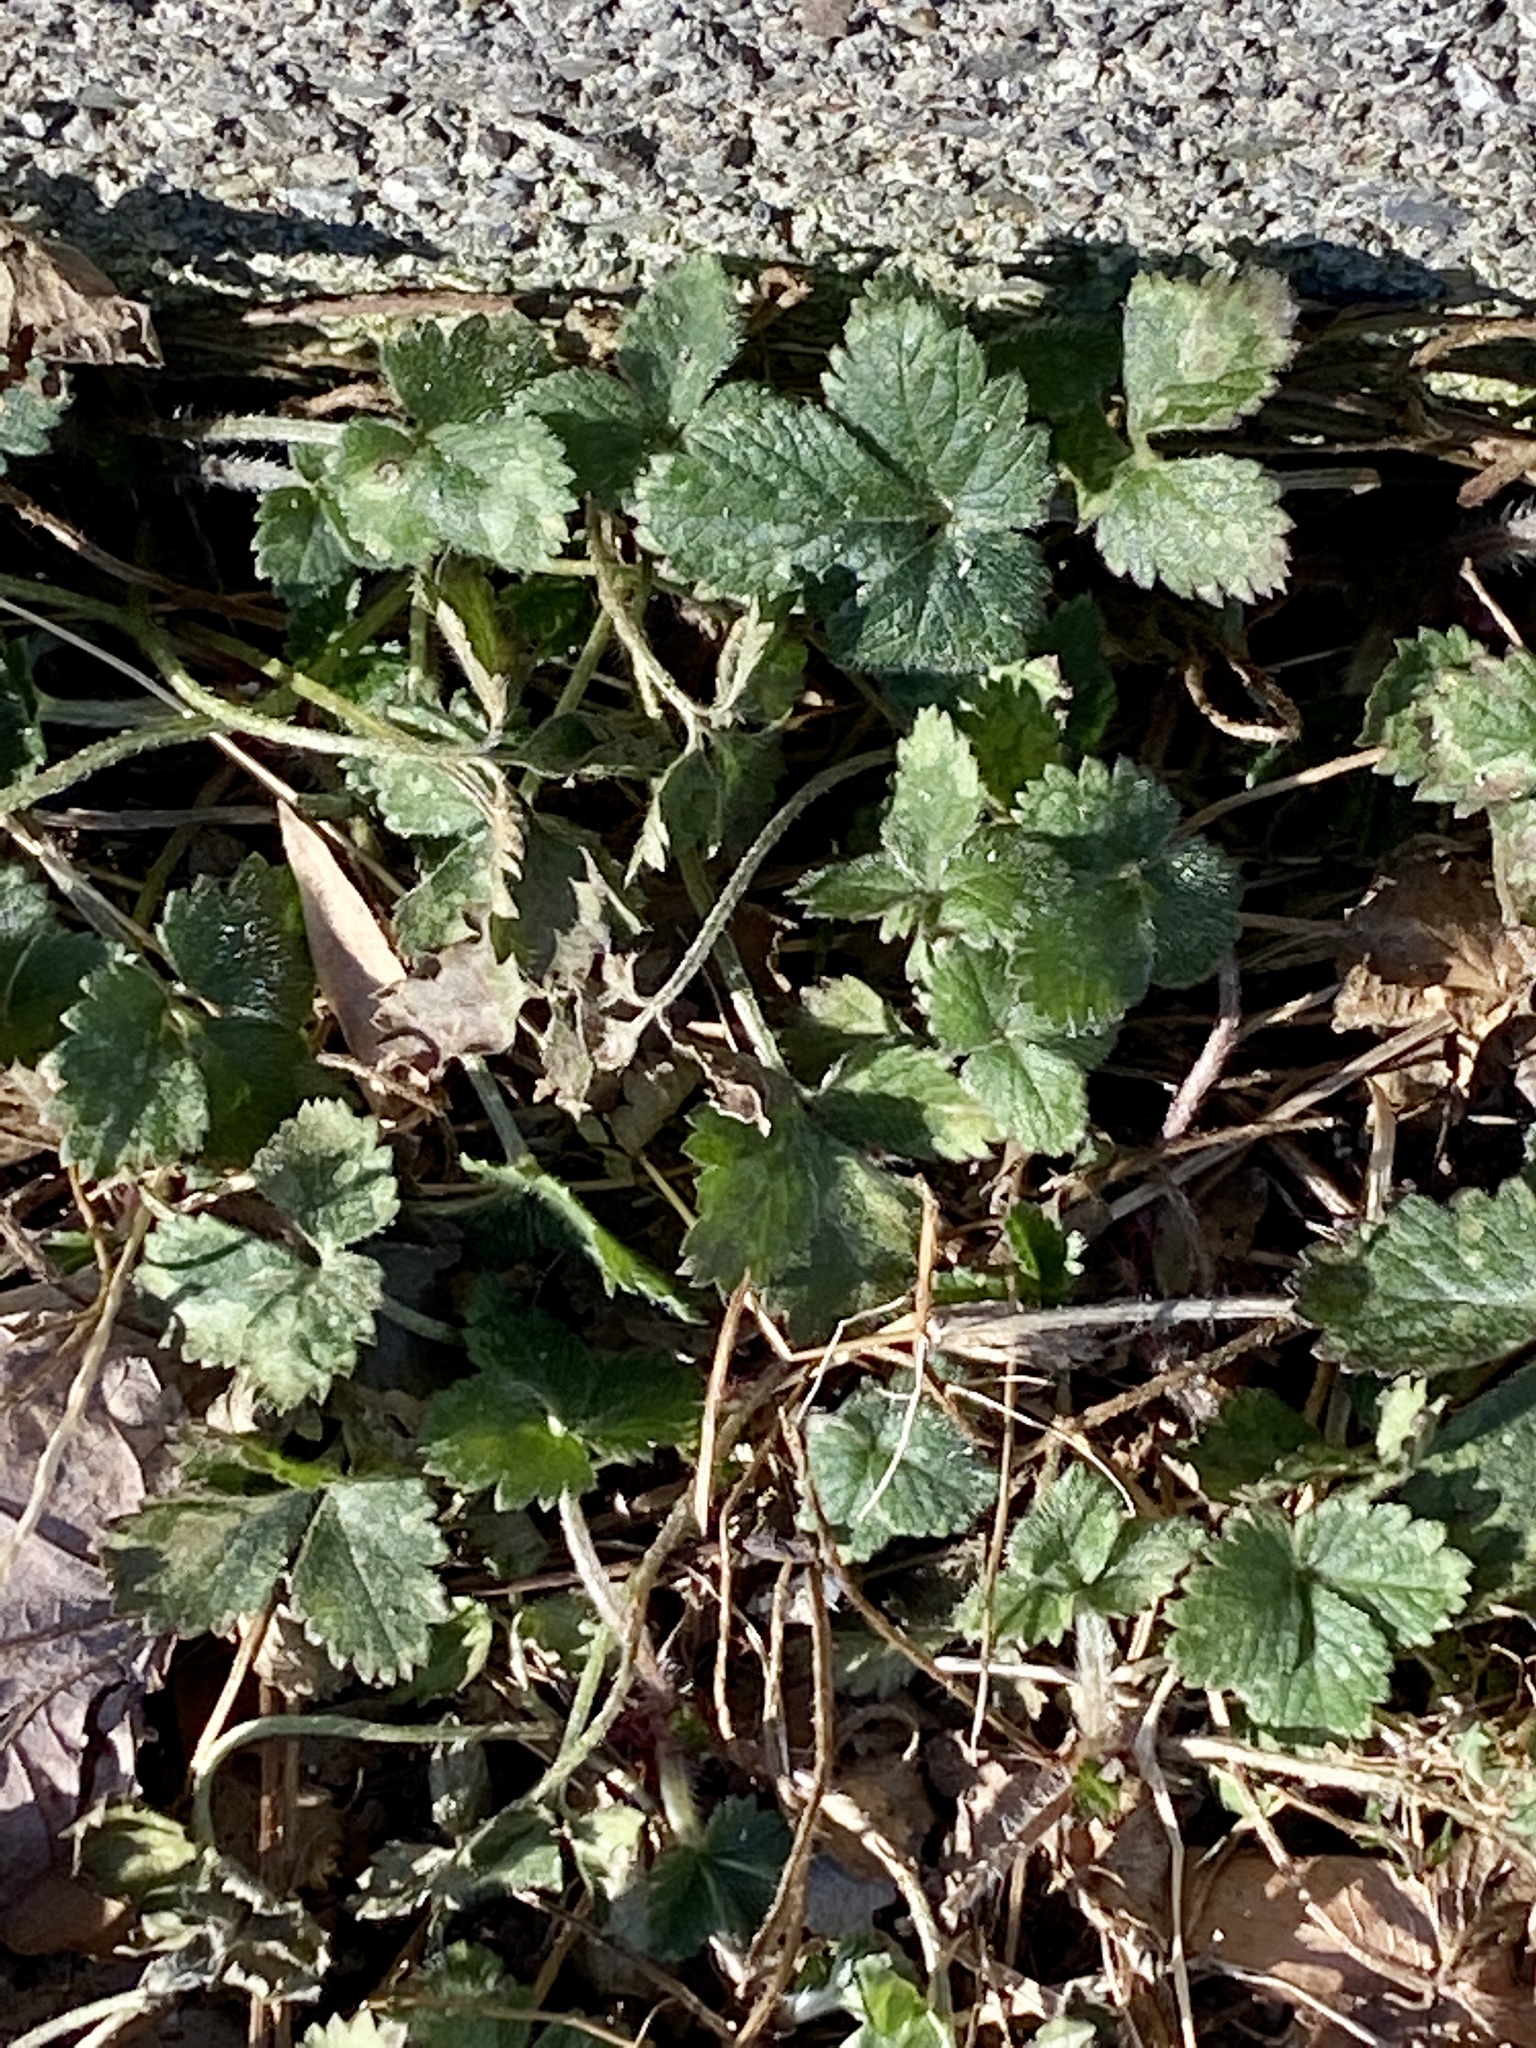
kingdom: Plantae
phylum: Tracheophyta
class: Magnoliopsida
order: Rosales
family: Rosaceae
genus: Potentilla
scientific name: Potentilla indica
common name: Yellow-flowered strawberry
